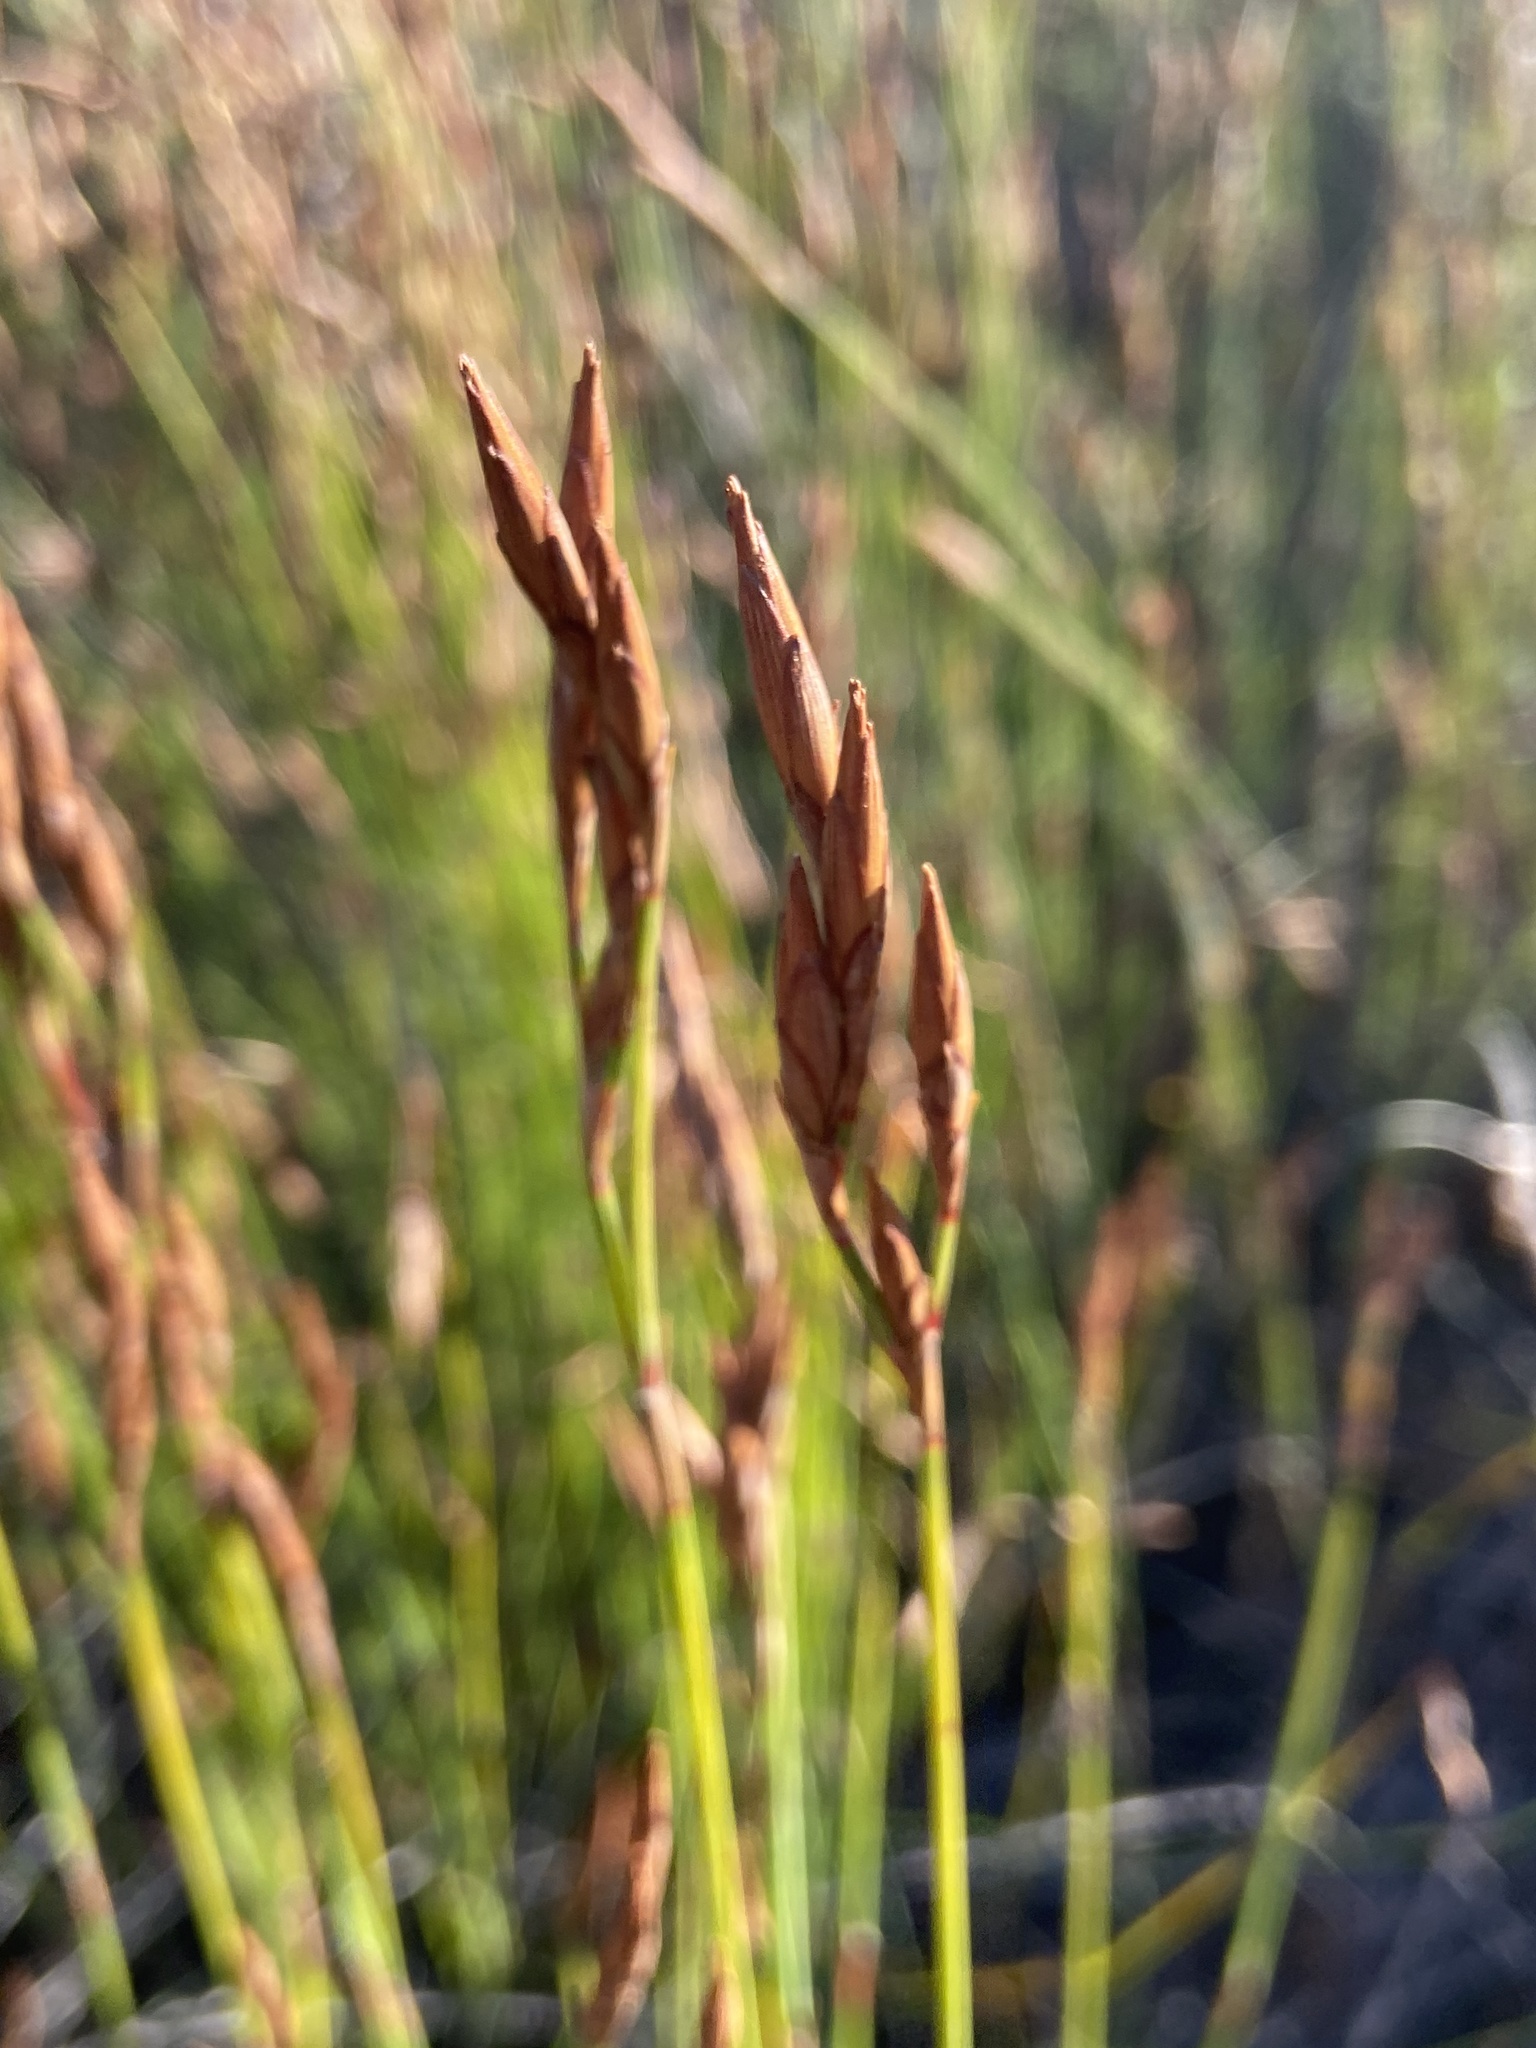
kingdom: Plantae
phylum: Tracheophyta
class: Liliopsida
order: Poales
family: Restionaceae
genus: Restio
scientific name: Restio micans
